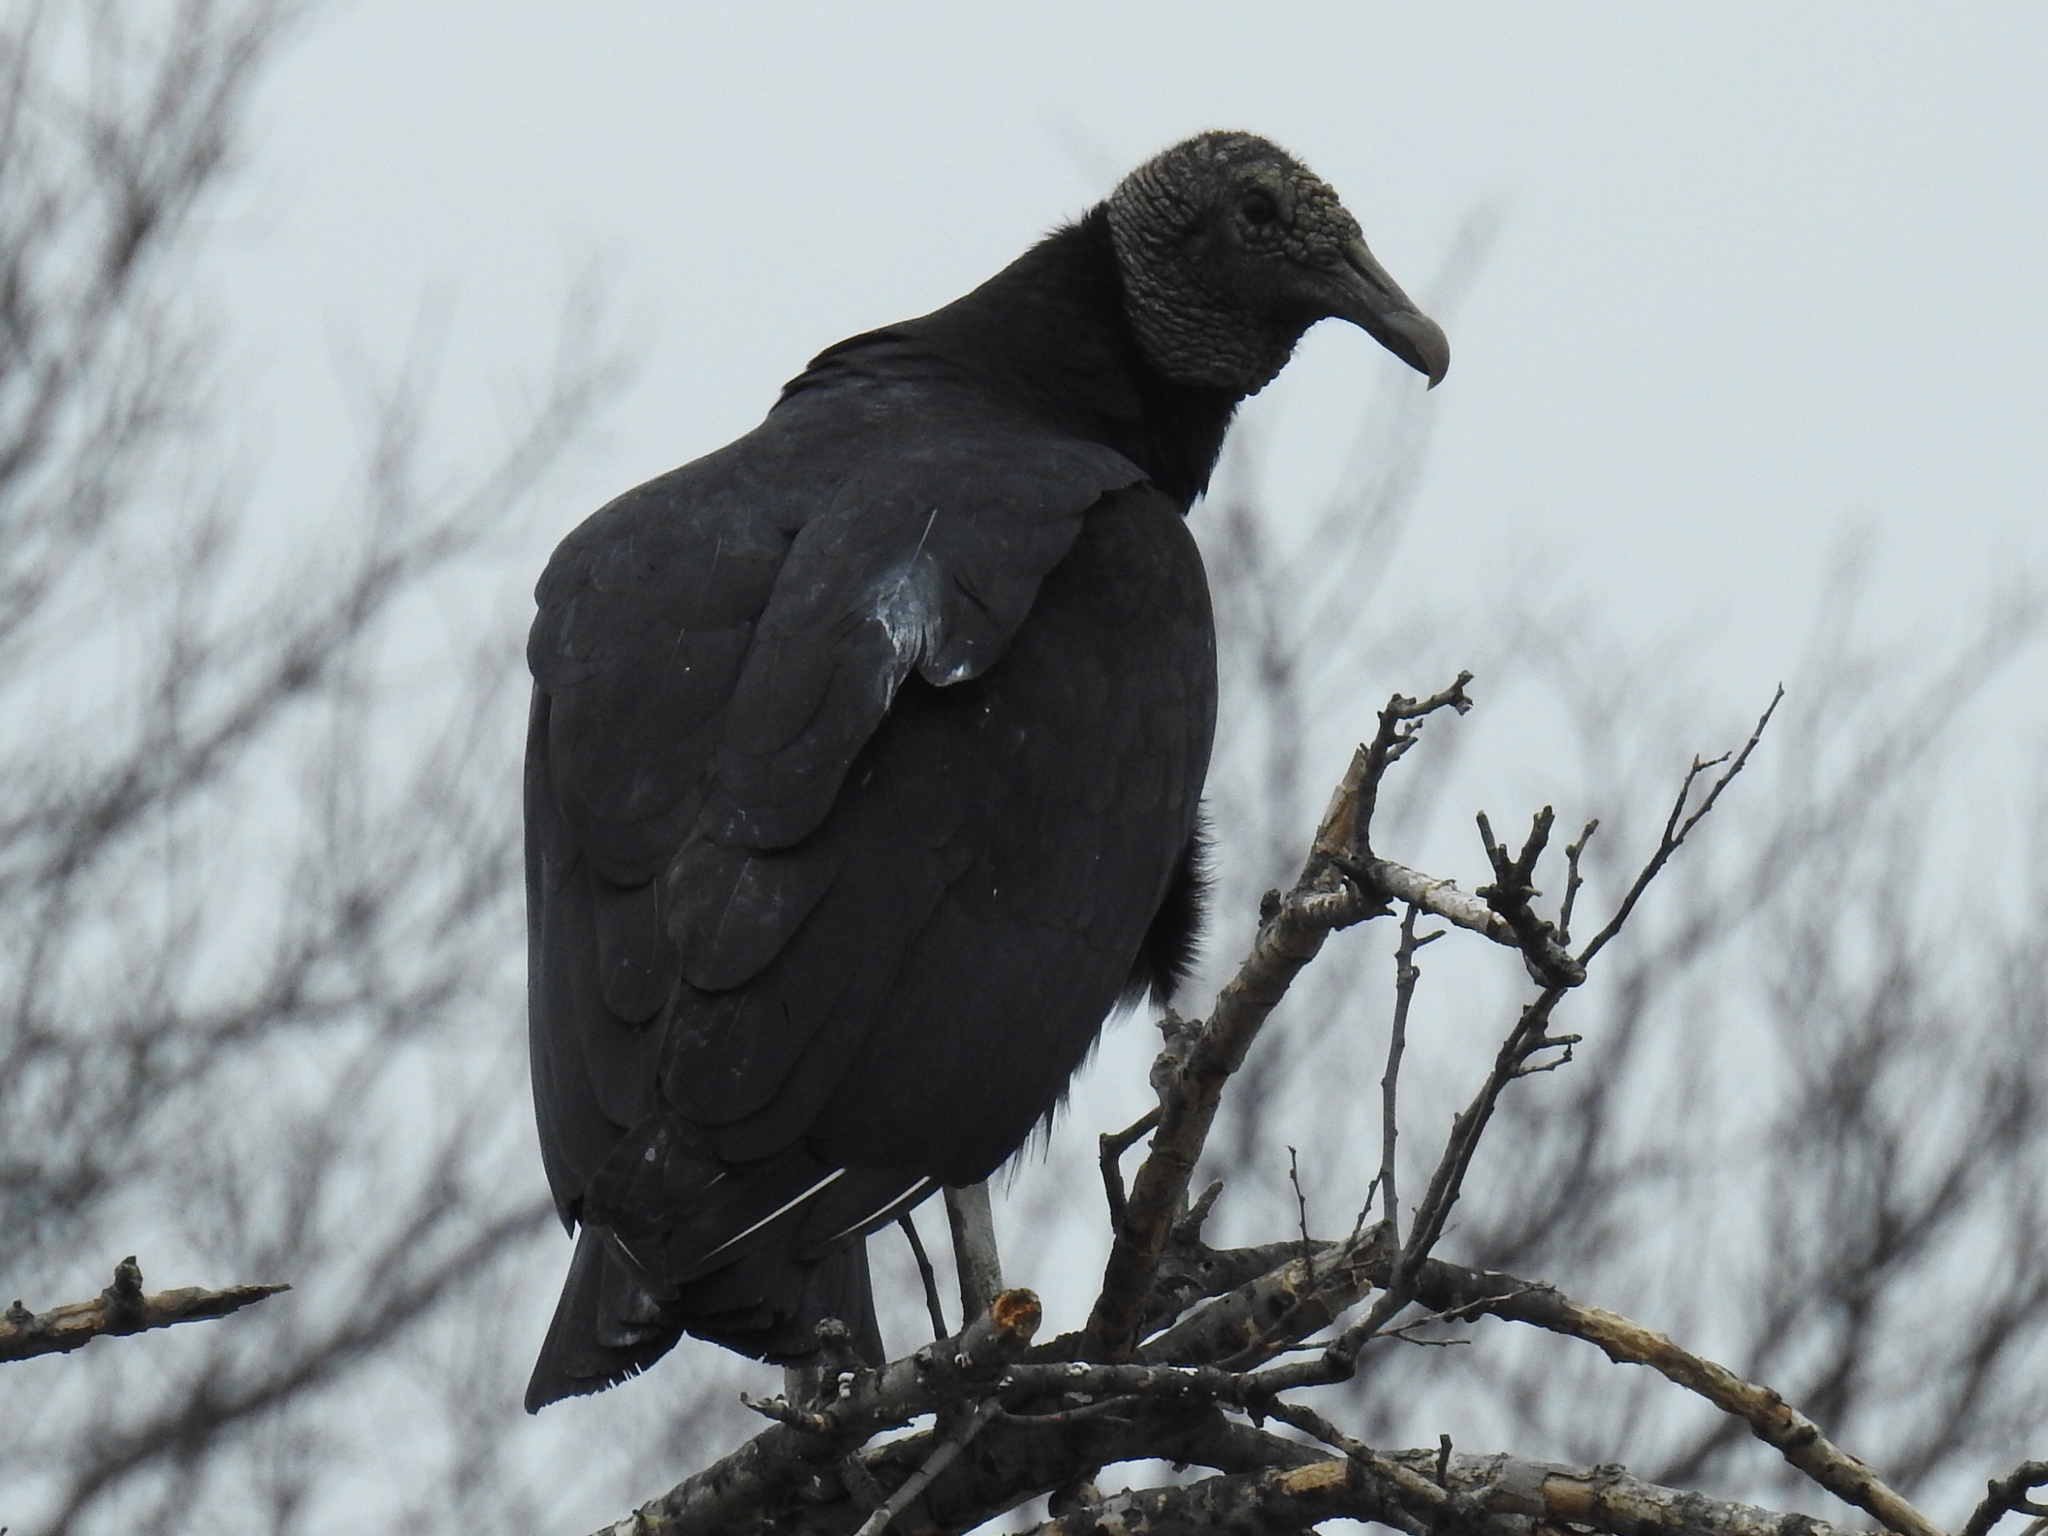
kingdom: Animalia
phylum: Chordata
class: Aves
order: Accipitriformes
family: Cathartidae
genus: Coragyps
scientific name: Coragyps atratus
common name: Black vulture
